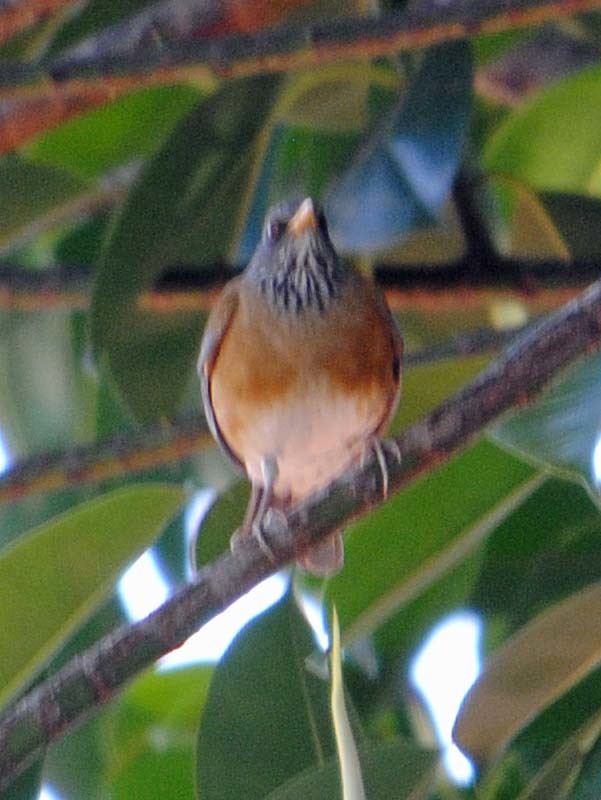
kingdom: Animalia
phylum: Chordata
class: Aves
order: Passeriformes
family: Turdidae
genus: Turdus
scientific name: Turdus rufopalliatus
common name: Rufous-backed robin
